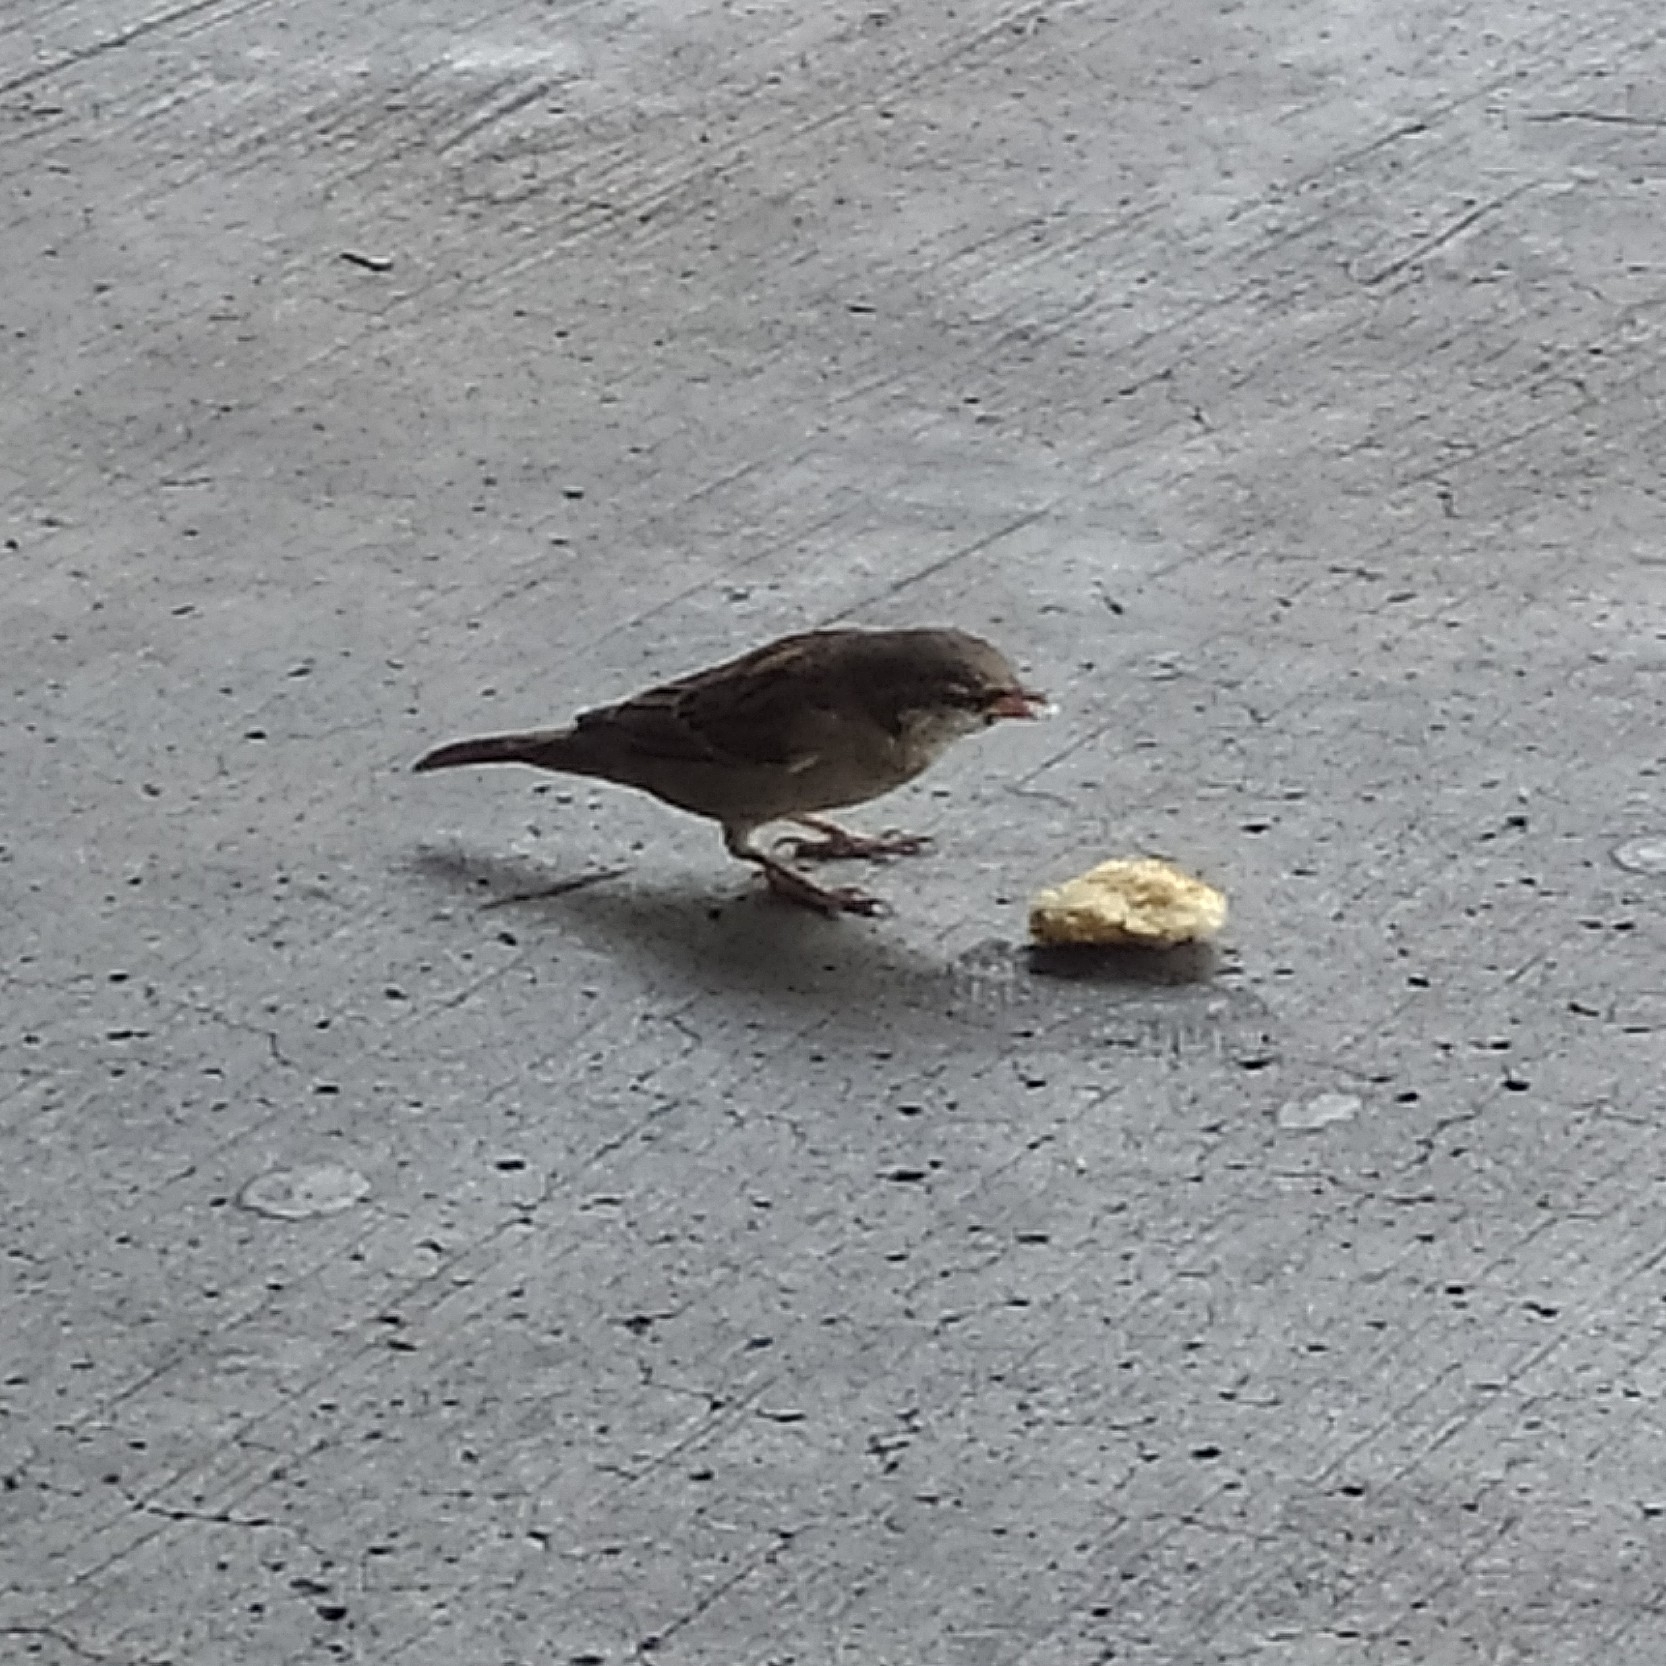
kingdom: Animalia
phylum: Chordata
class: Aves
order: Passeriformes
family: Passeridae
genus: Passer
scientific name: Passer domesticus
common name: House sparrow
